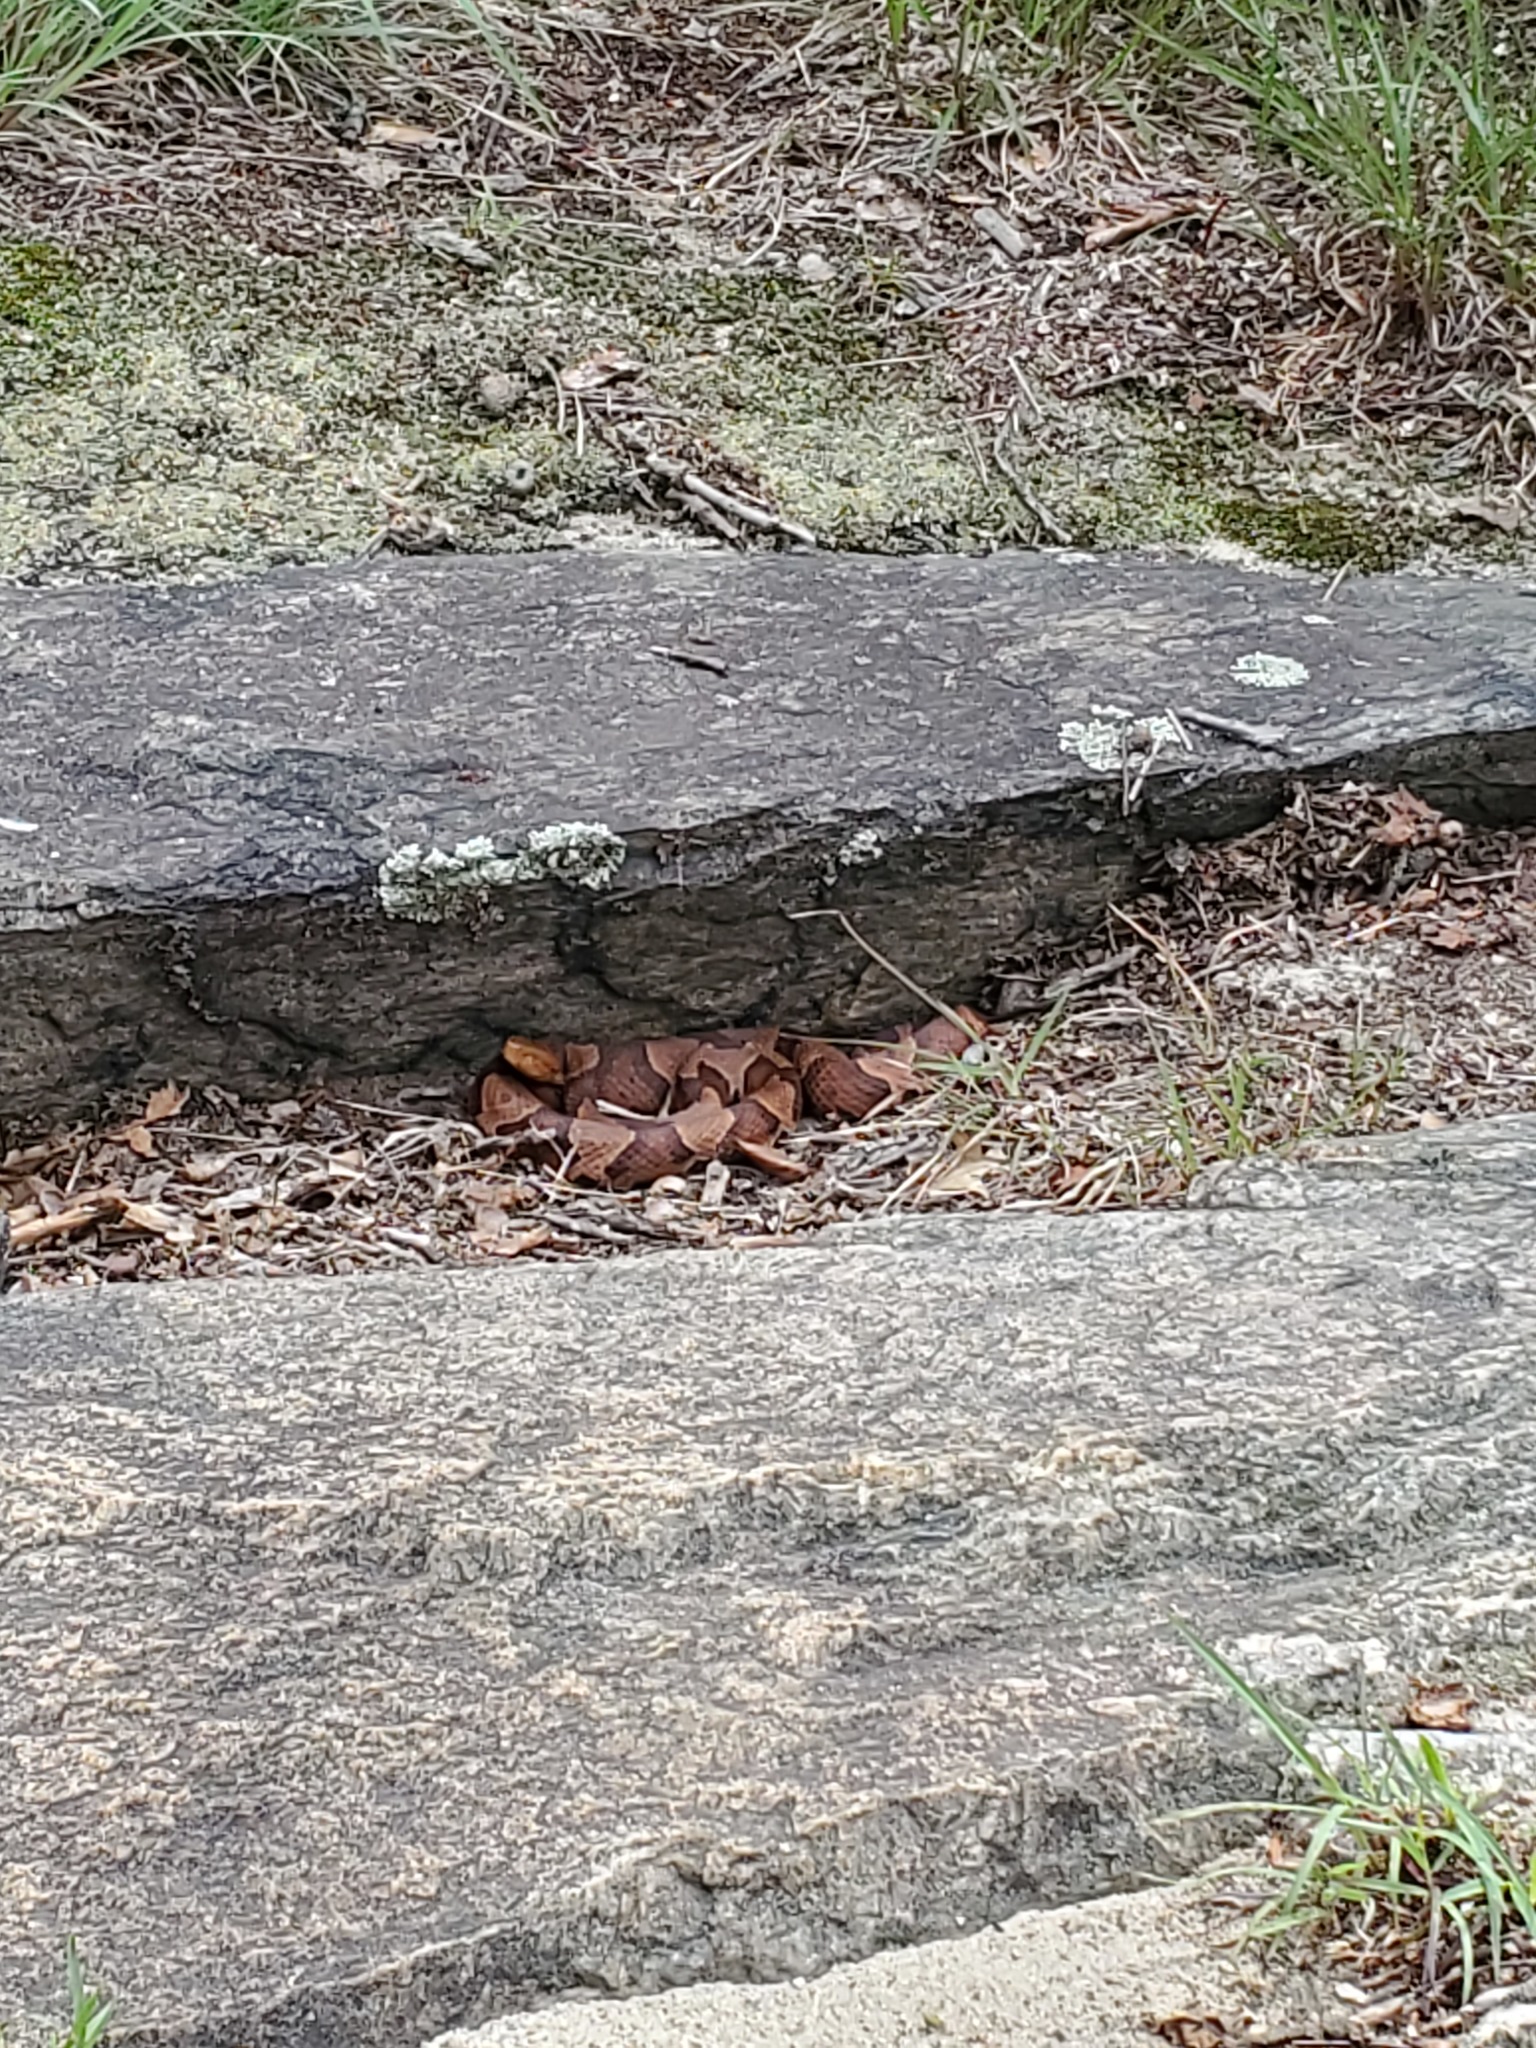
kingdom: Animalia
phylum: Chordata
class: Squamata
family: Viperidae
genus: Agkistrodon
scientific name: Agkistrodon contortrix
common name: Northern copperhead
